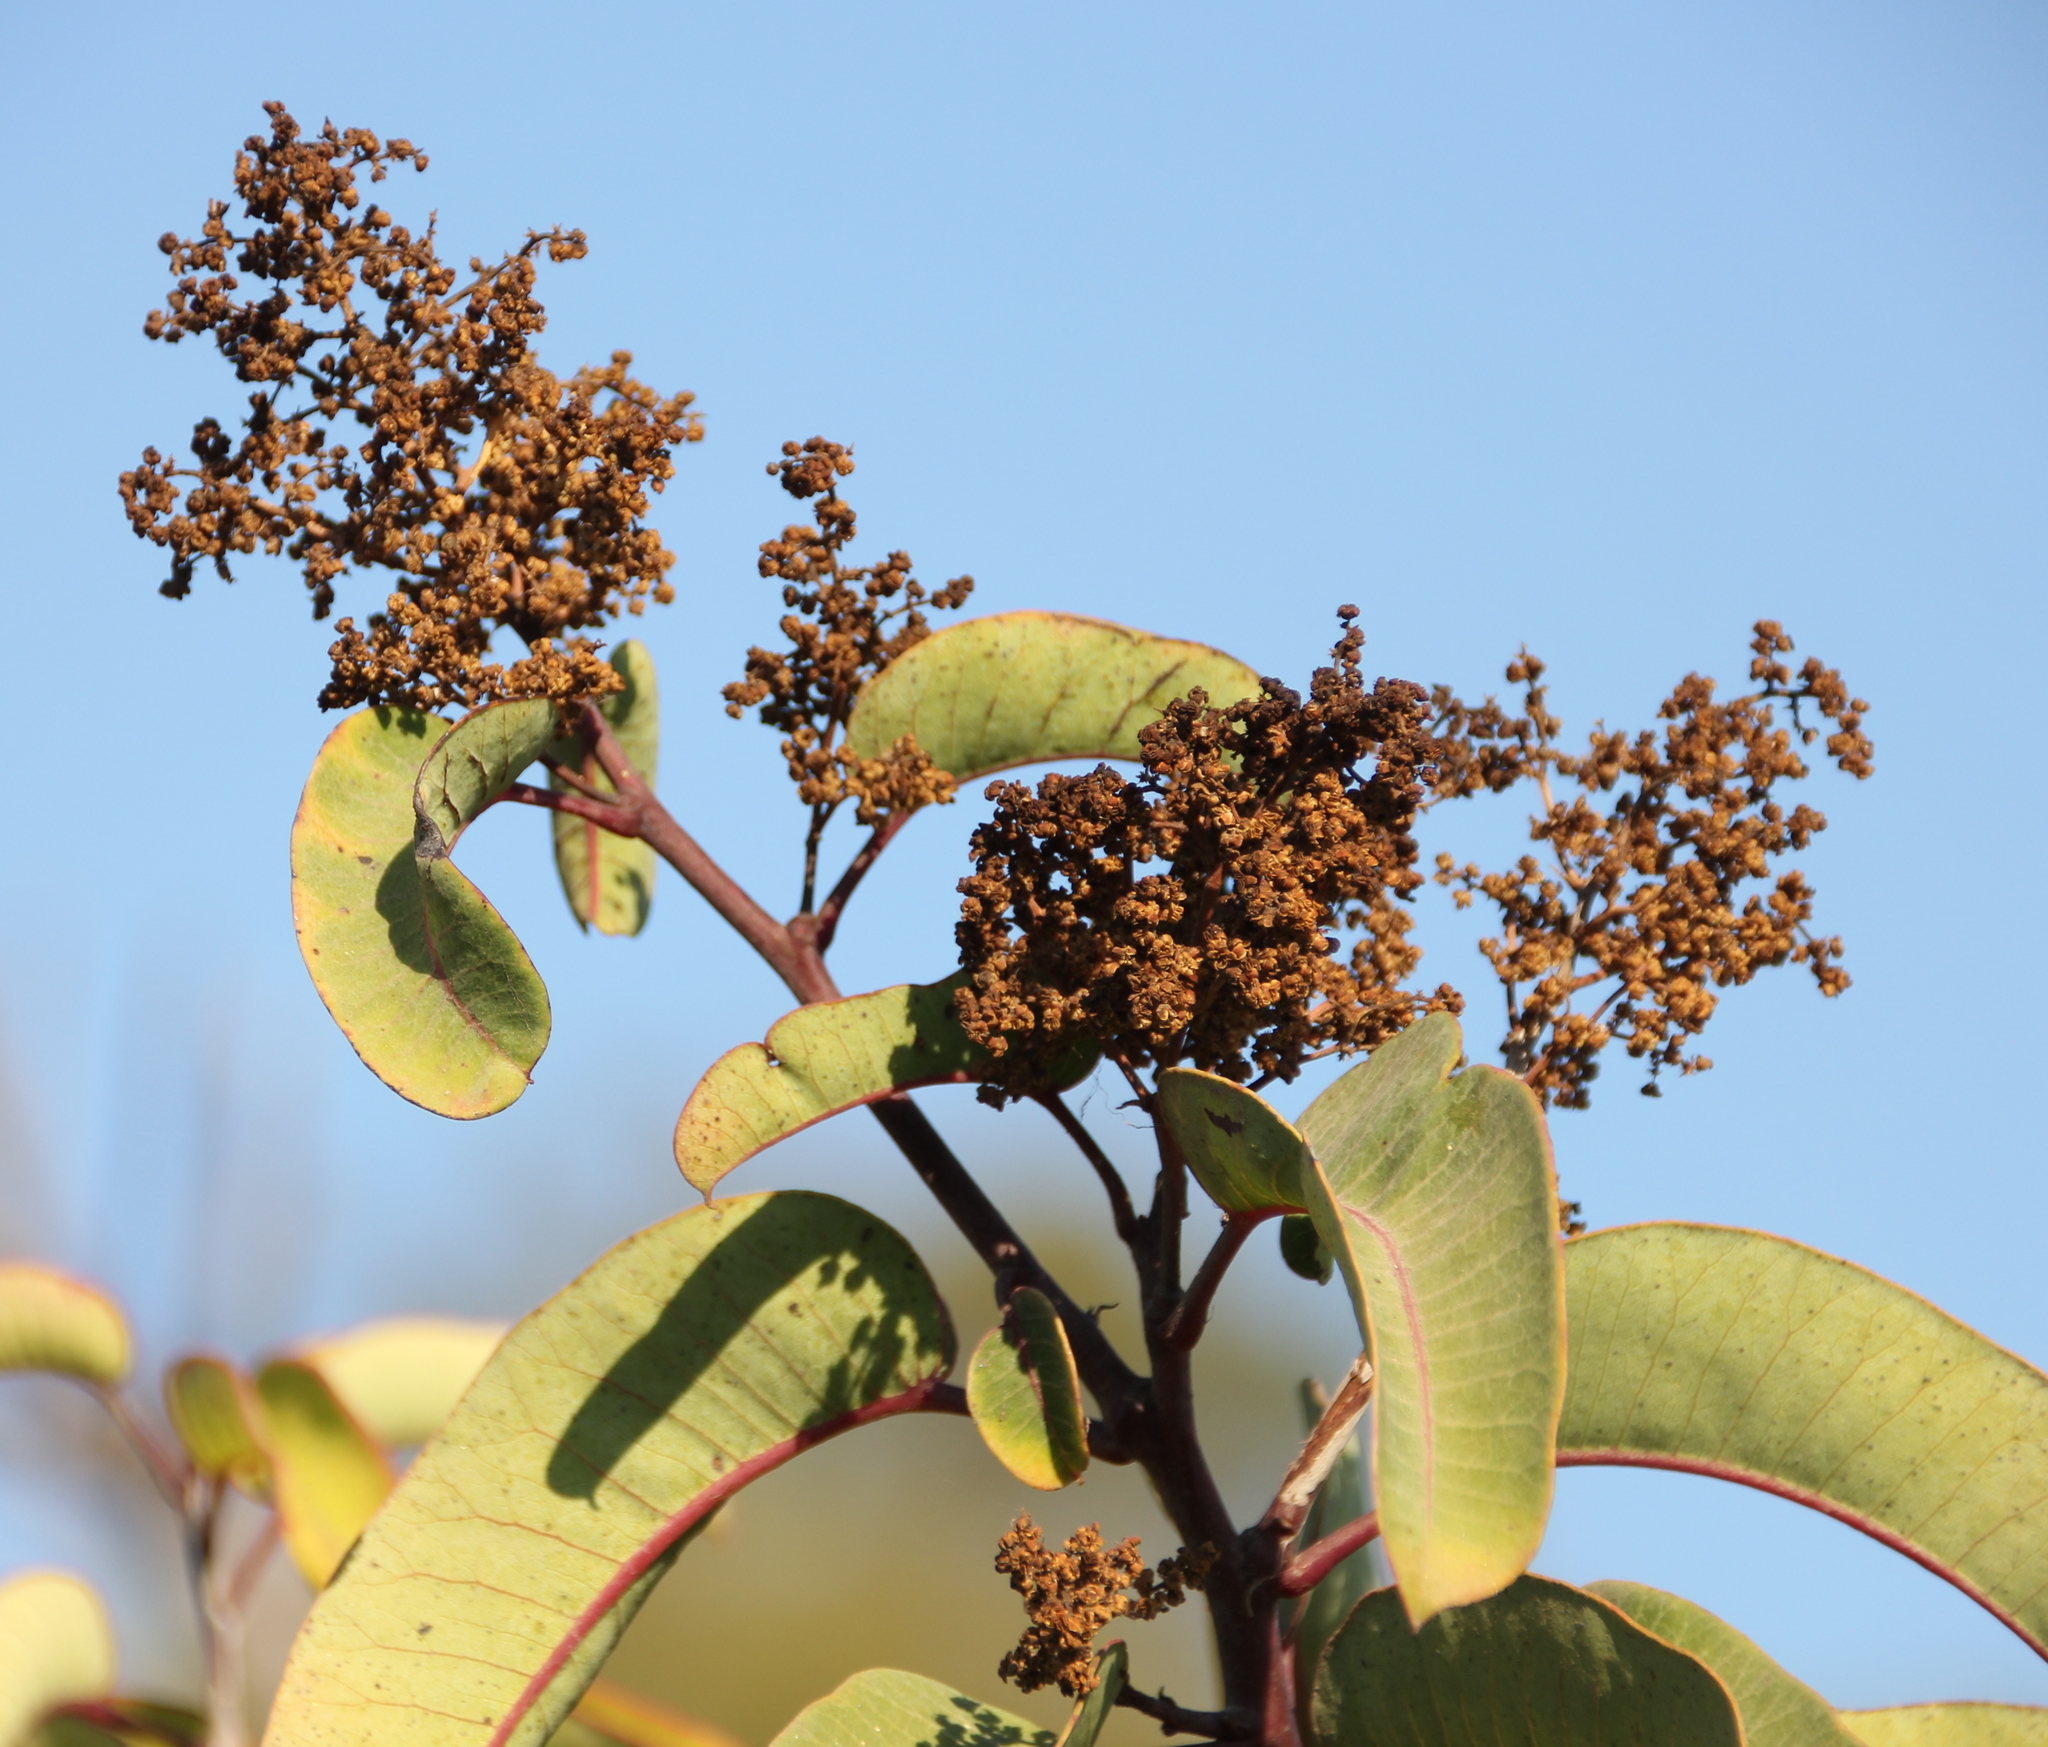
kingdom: Plantae
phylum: Tracheophyta
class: Magnoliopsida
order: Sapindales
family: Anacardiaceae
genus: Malosma
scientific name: Malosma laurina
